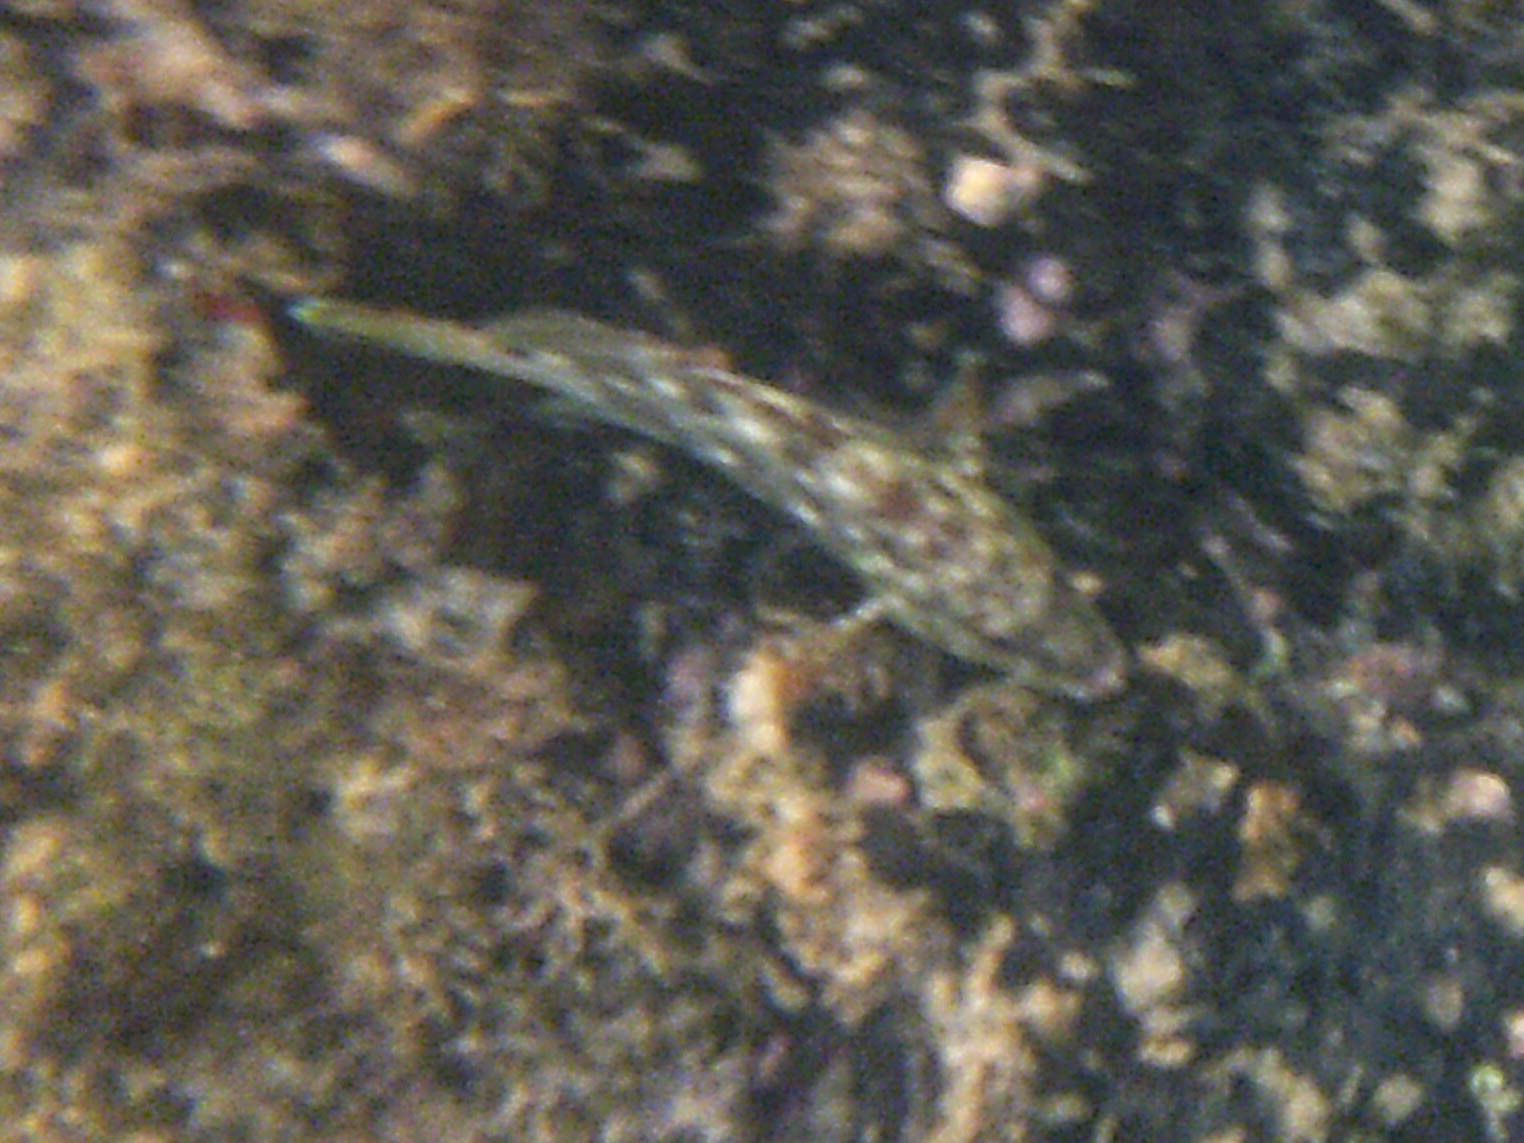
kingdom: Animalia
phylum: Chordata
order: Perciformes
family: Serranidae
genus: Epinephelus
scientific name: Epinephelus labriformis
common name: Flag cabrilla
